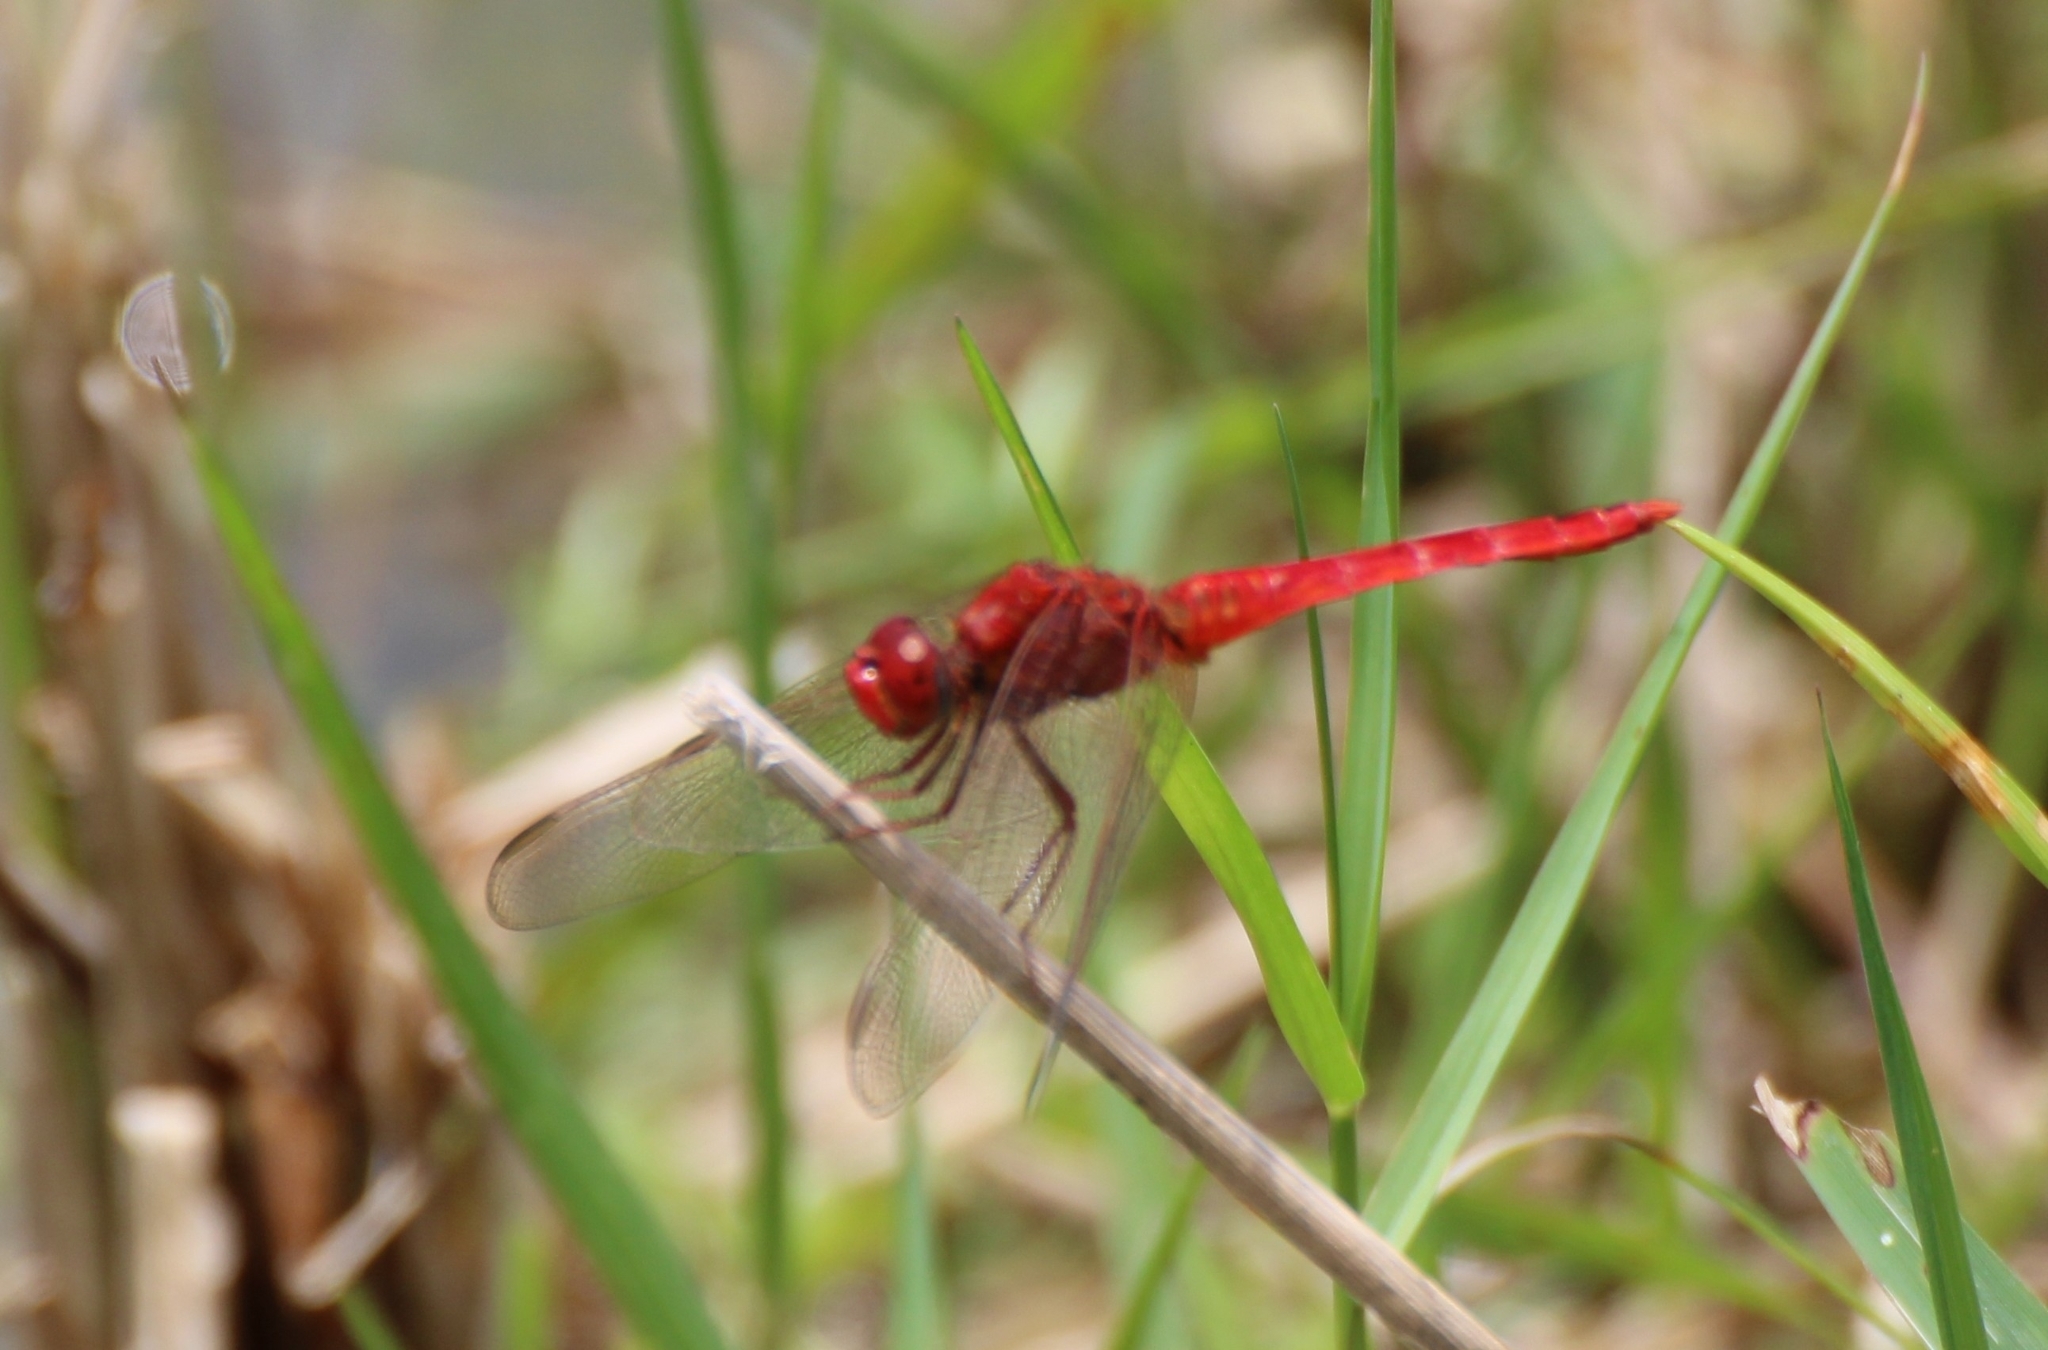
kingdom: Animalia
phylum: Arthropoda
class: Insecta
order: Odonata
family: Libellulidae
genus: Crocothemis
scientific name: Crocothemis servilia
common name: Scarlet skimmer
